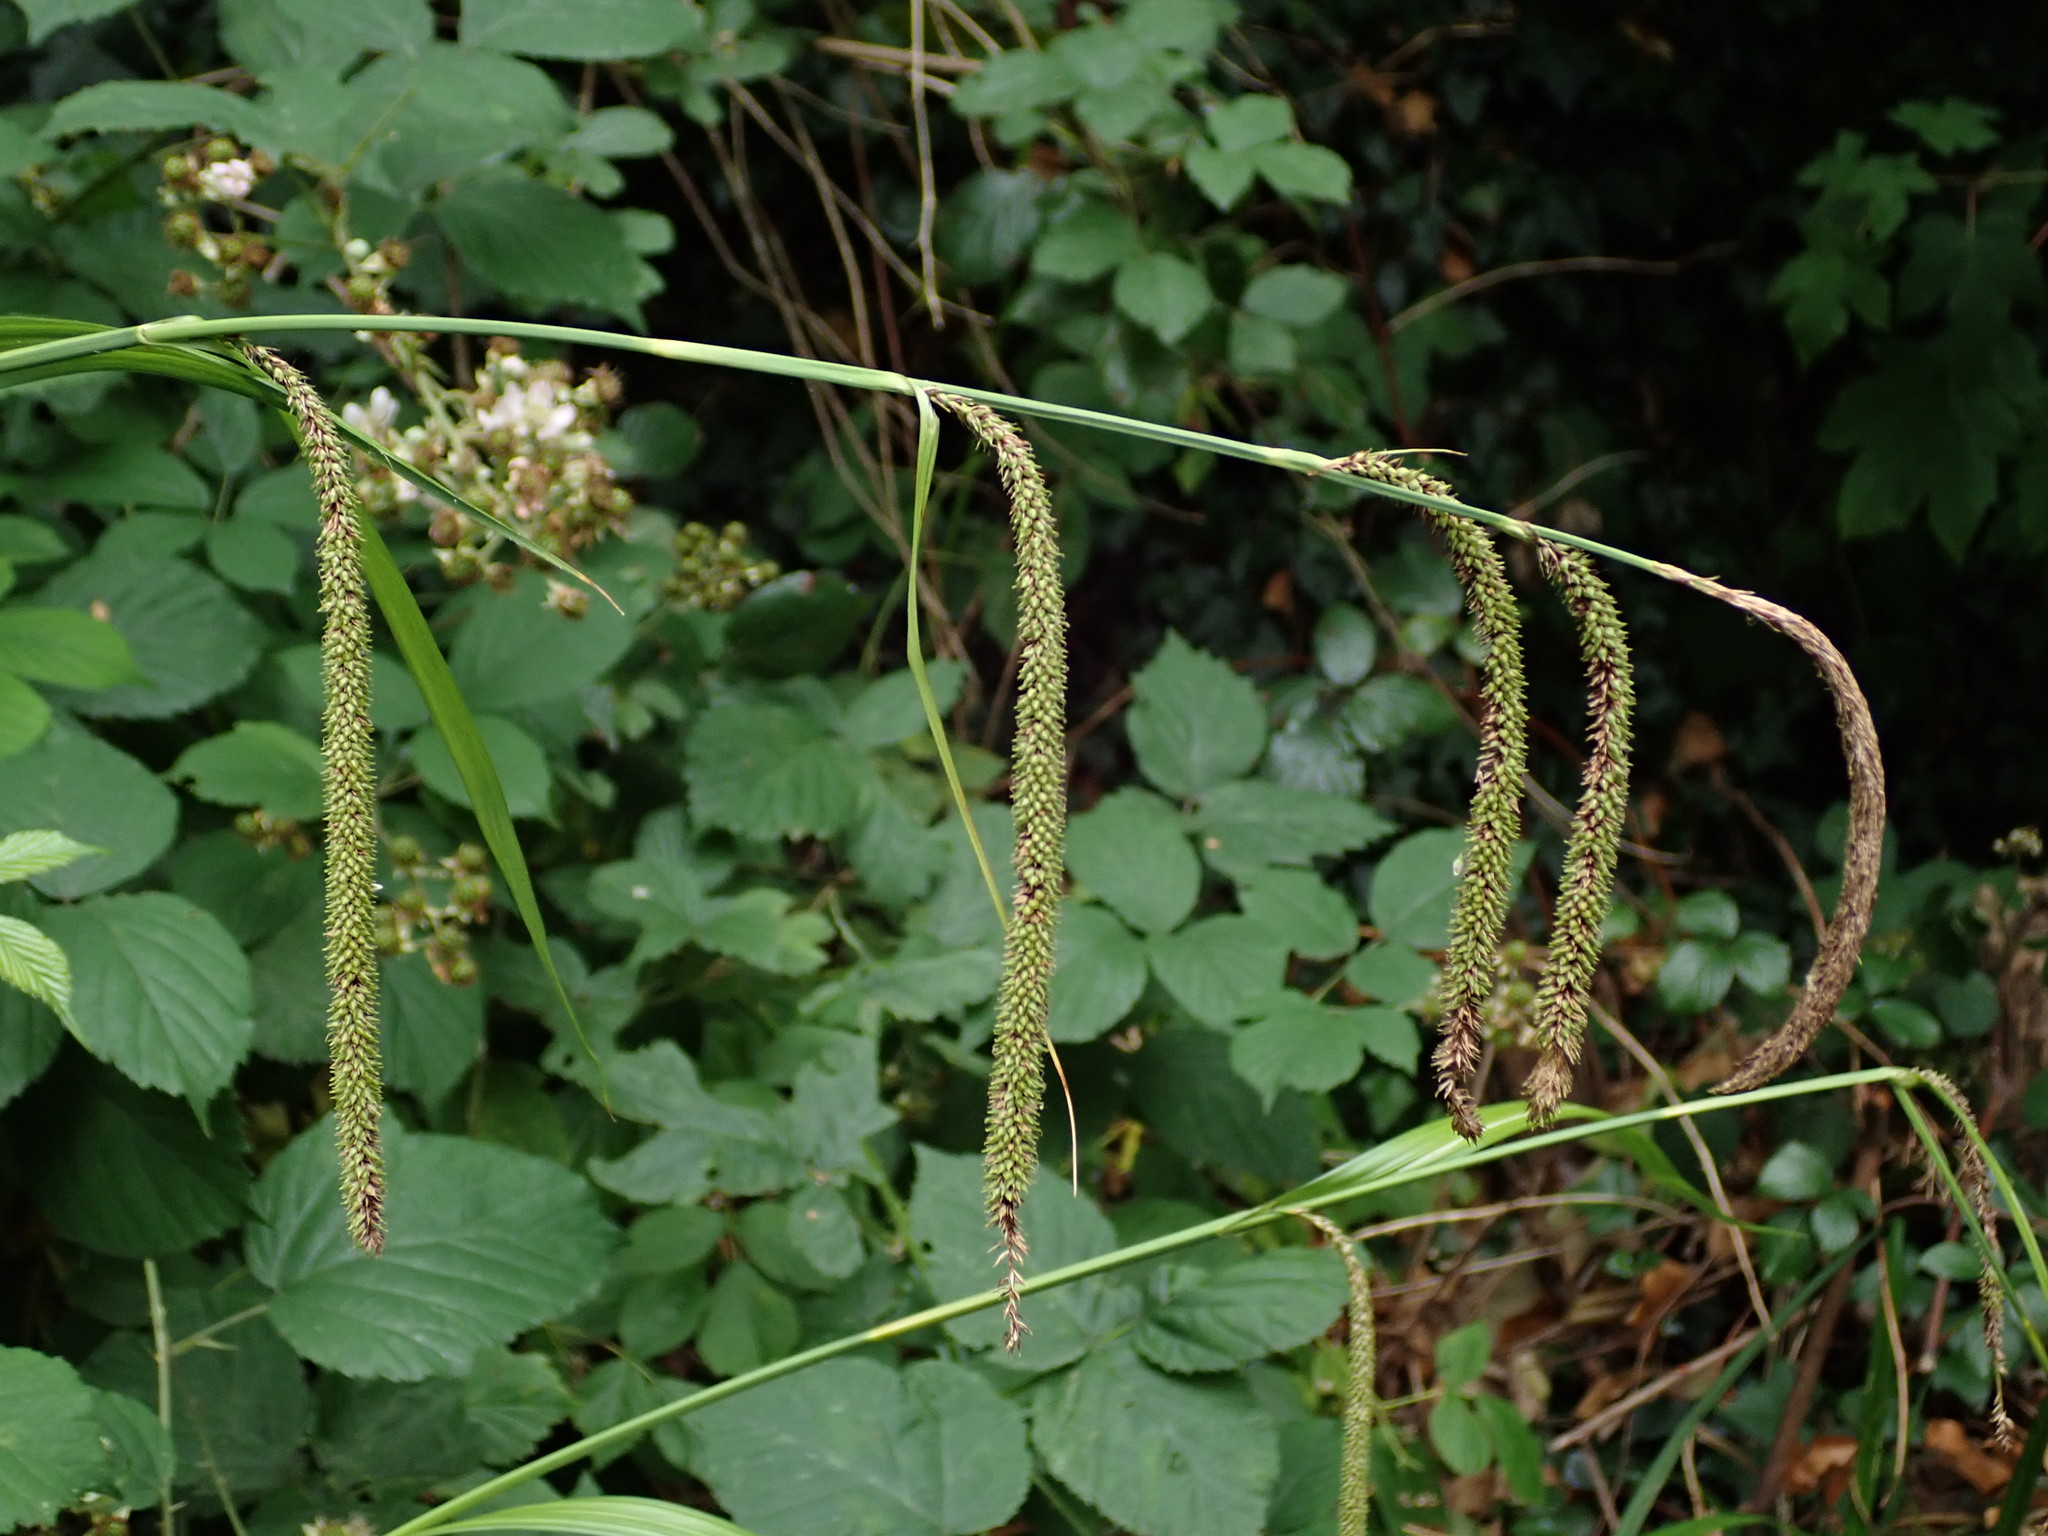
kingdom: Plantae
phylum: Tracheophyta
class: Liliopsida
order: Poales
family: Cyperaceae
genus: Carex
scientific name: Carex pendula
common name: Pendulous sedge
